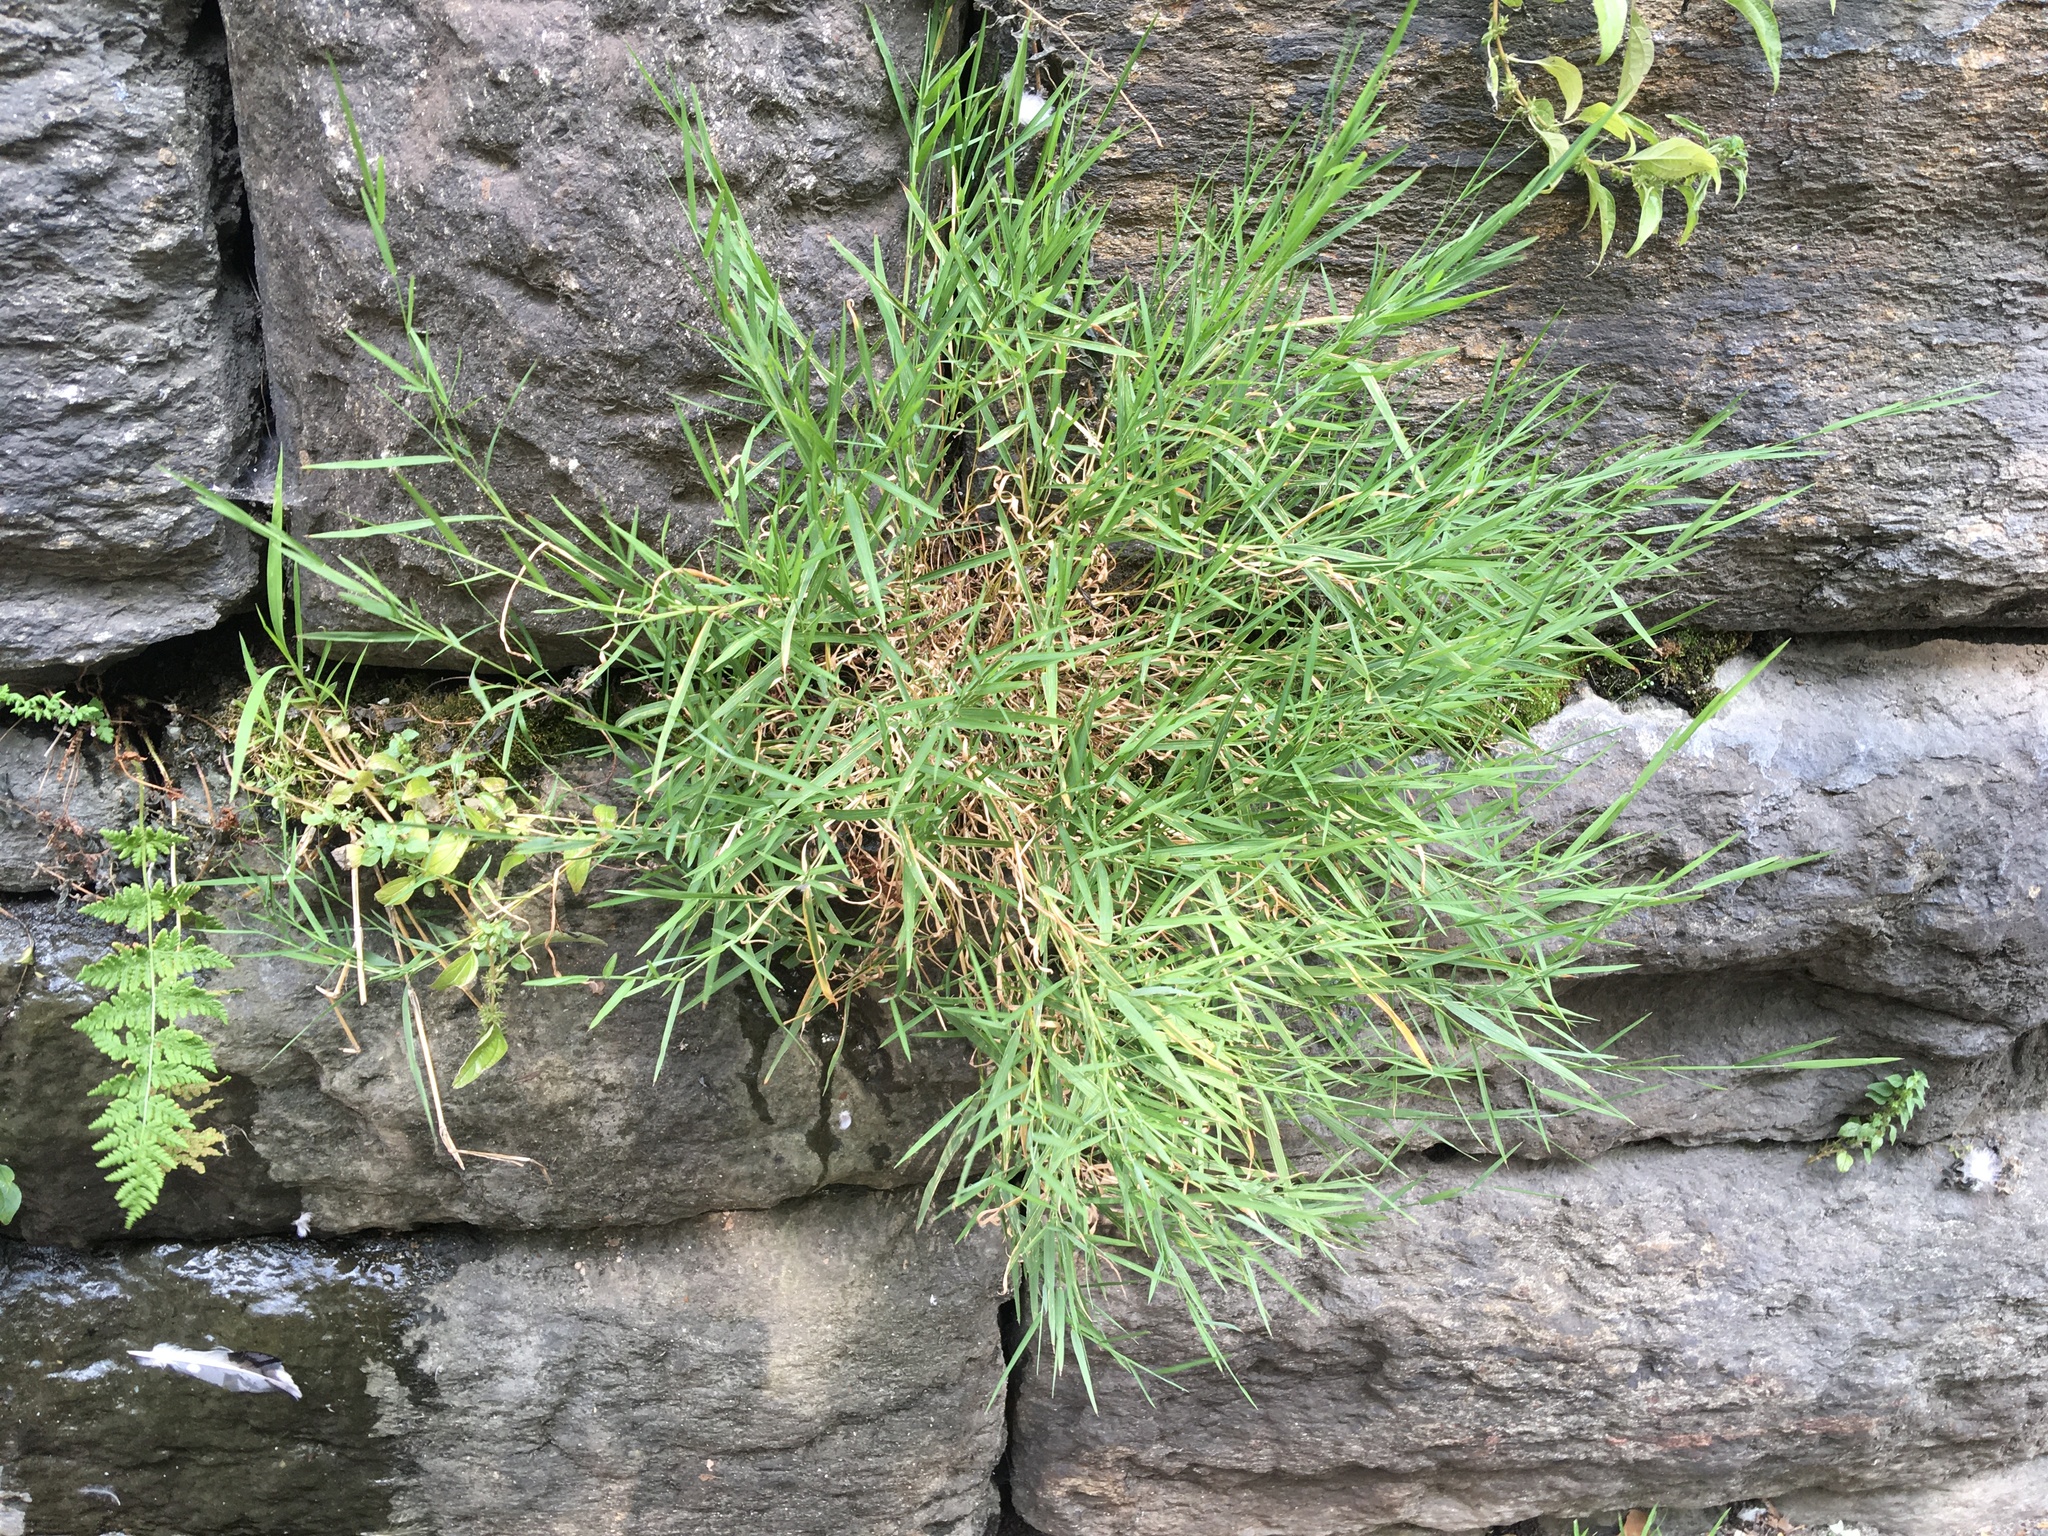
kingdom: Plantae
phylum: Tracheophyta
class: Liliopsida
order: Poales
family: Poaceae
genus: Muhlenbergia
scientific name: Muhlenbergia schreberi
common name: Nimblewill
